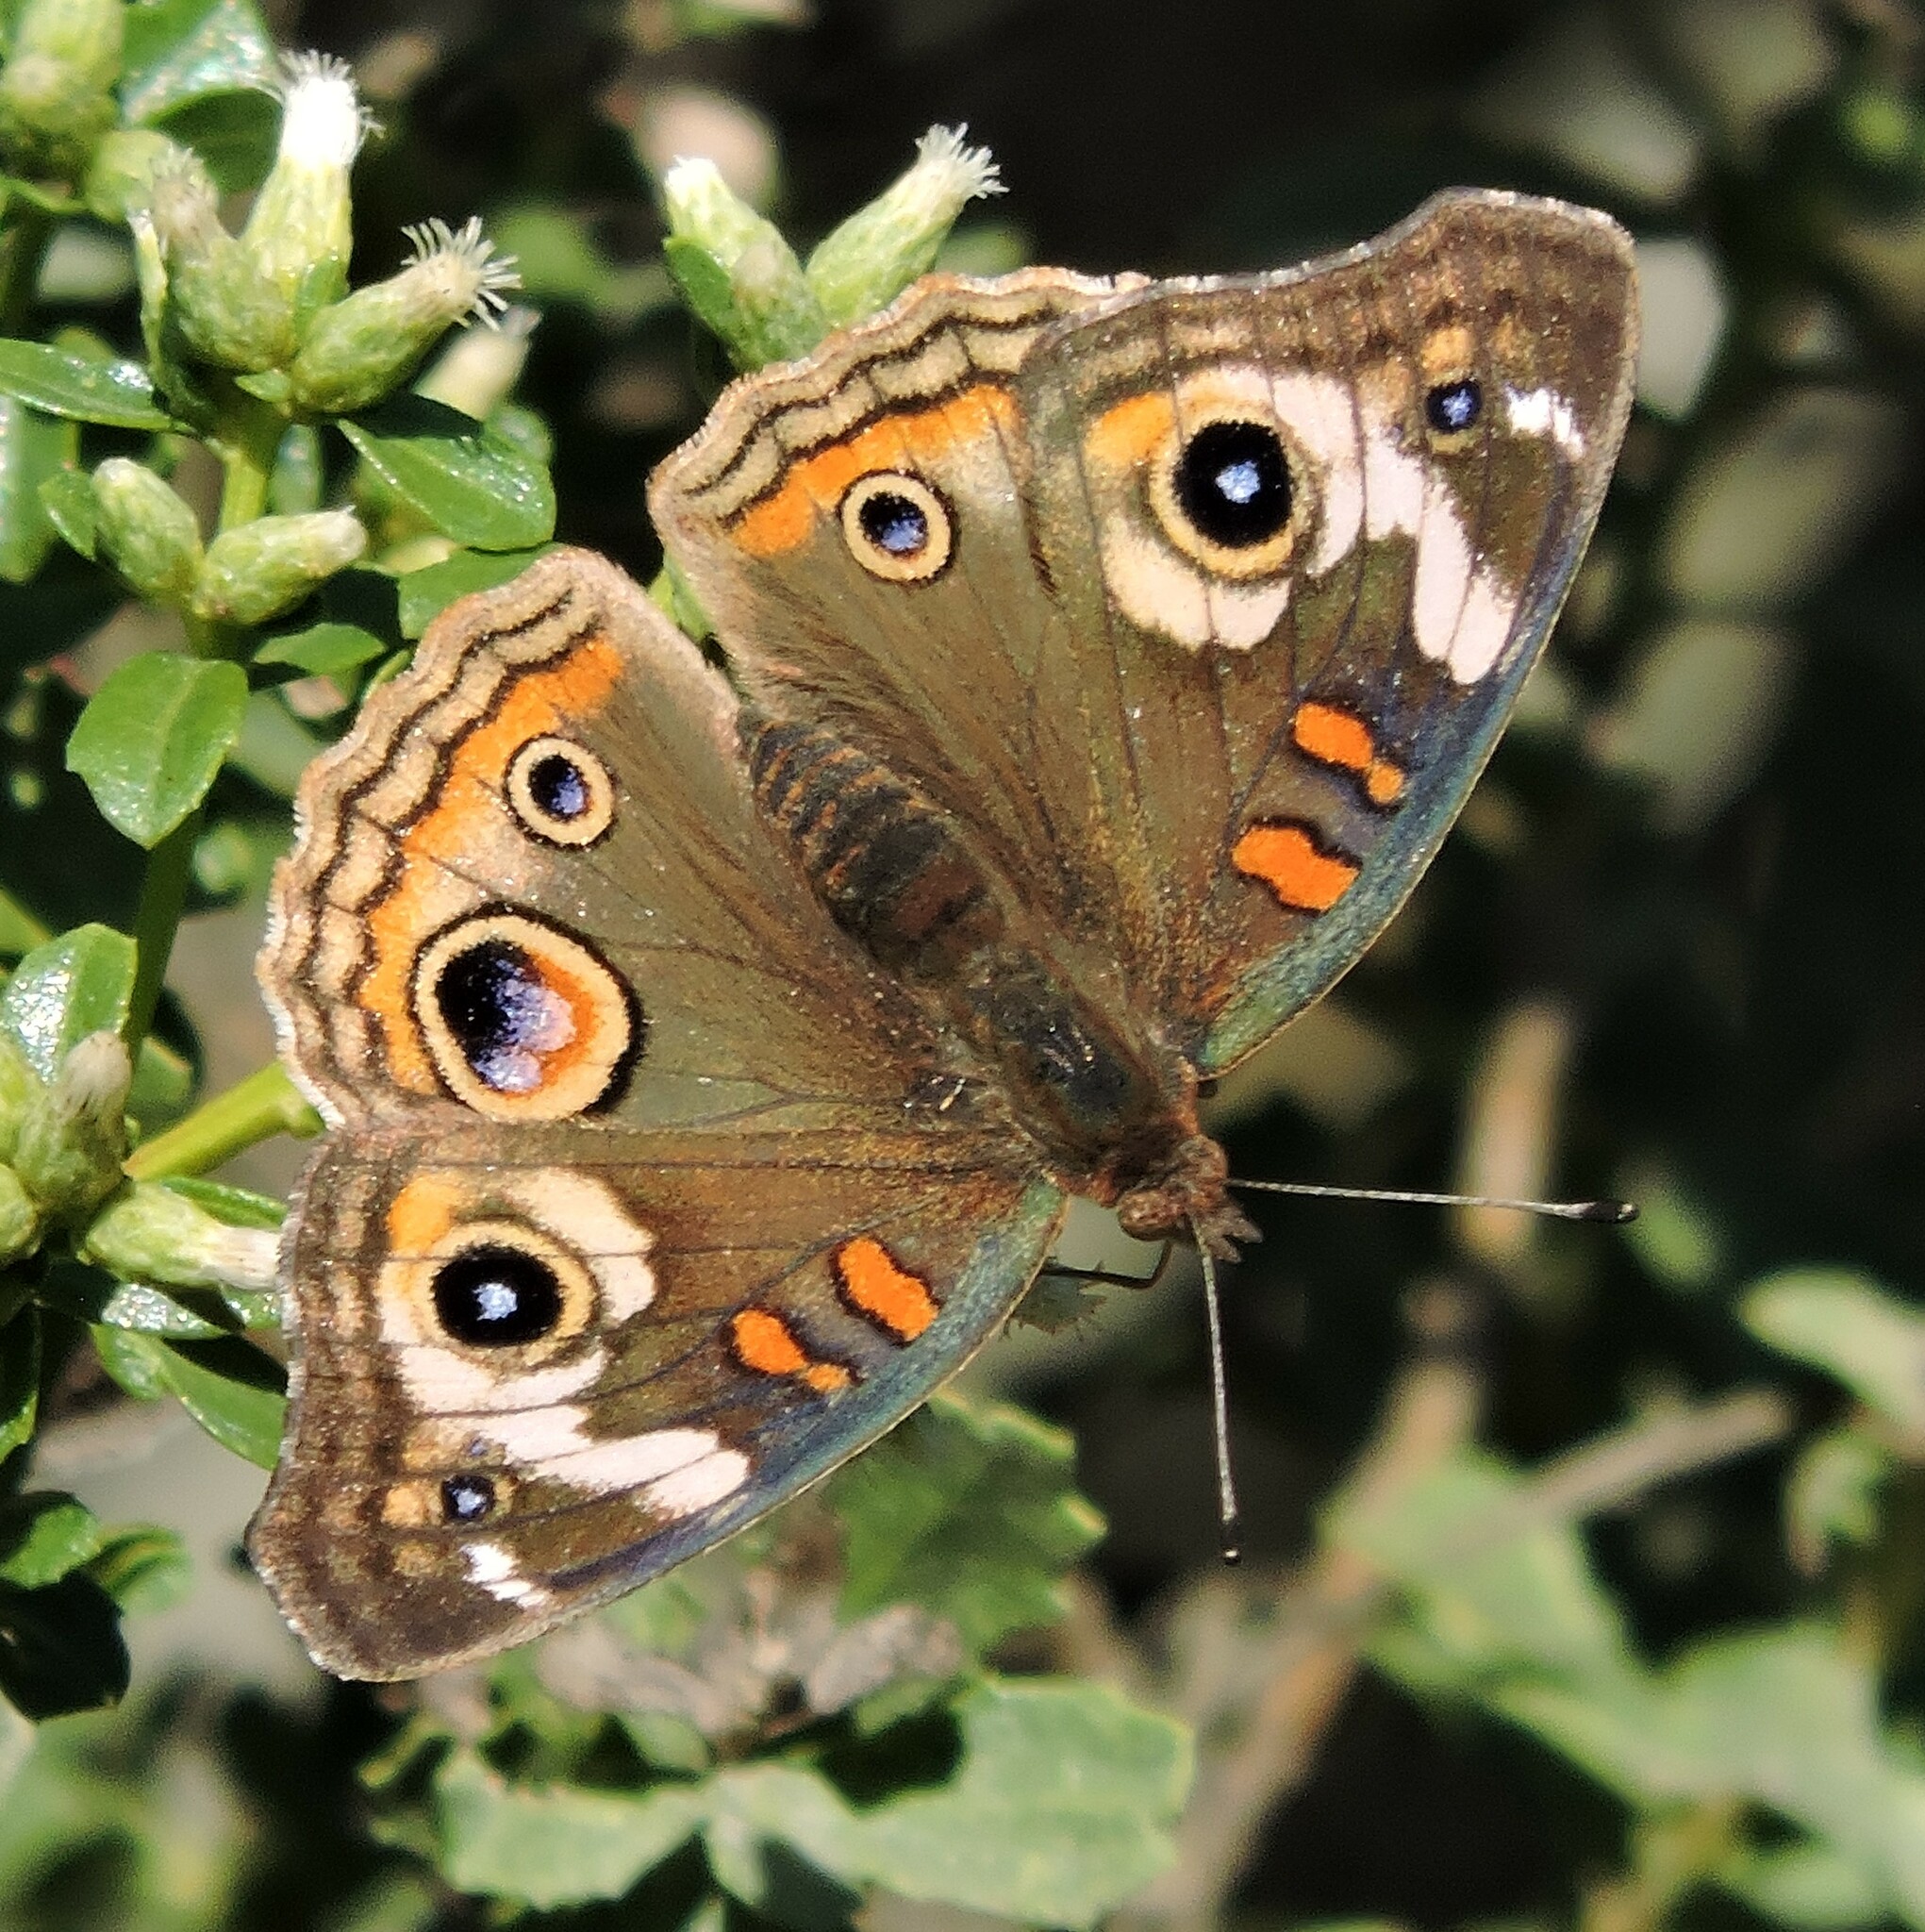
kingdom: Animalia
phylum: Arthropoda
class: Insecta
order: Lepidoptera
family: Nymphalidae
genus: Junonia
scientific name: Junonia grisea
